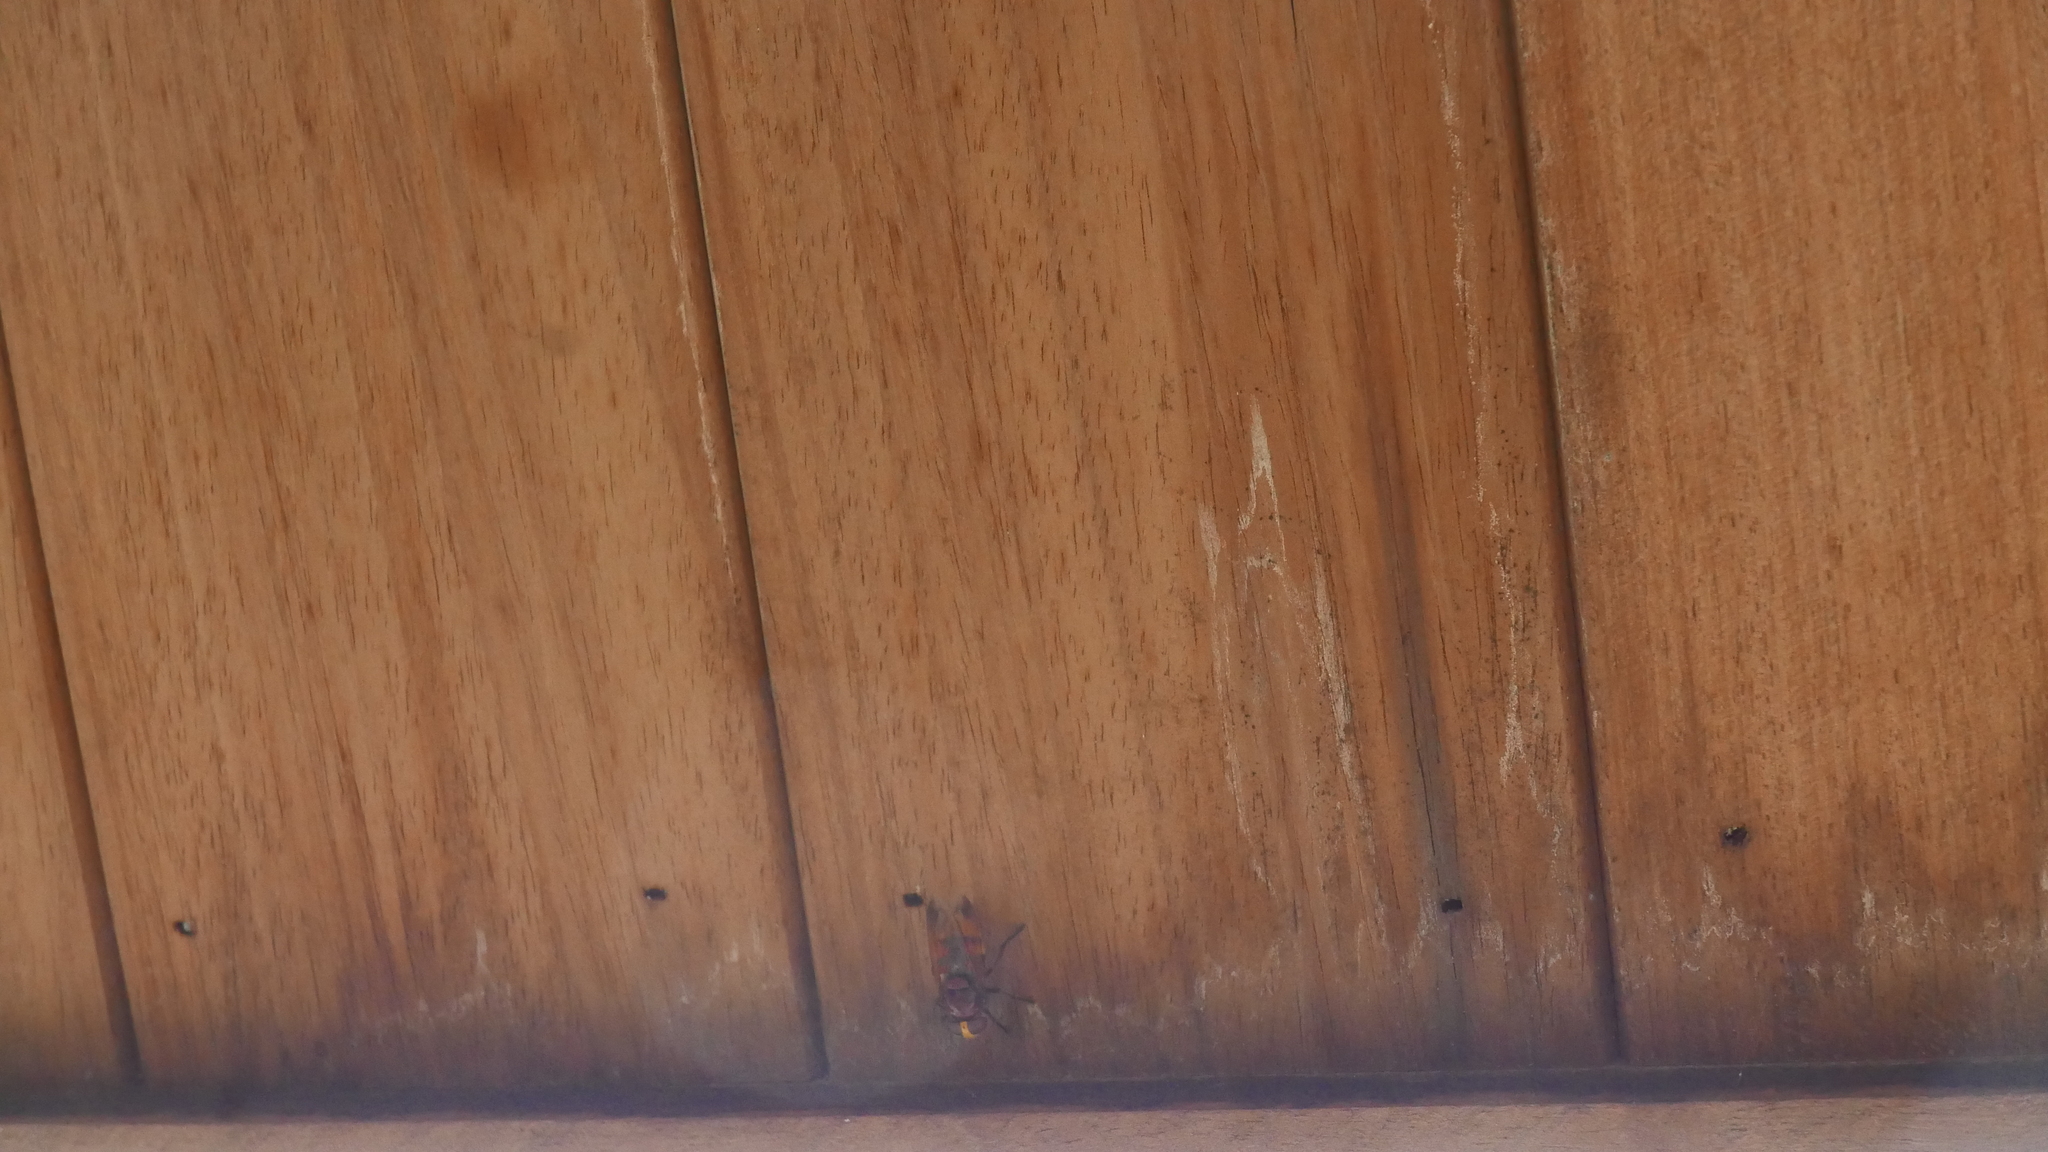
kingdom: Animalia
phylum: Arthropoda
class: Insecta
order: Diptera
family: Syrphidae
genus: Volucella
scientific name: Volucella zonaria
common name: Hornet hoverfly
